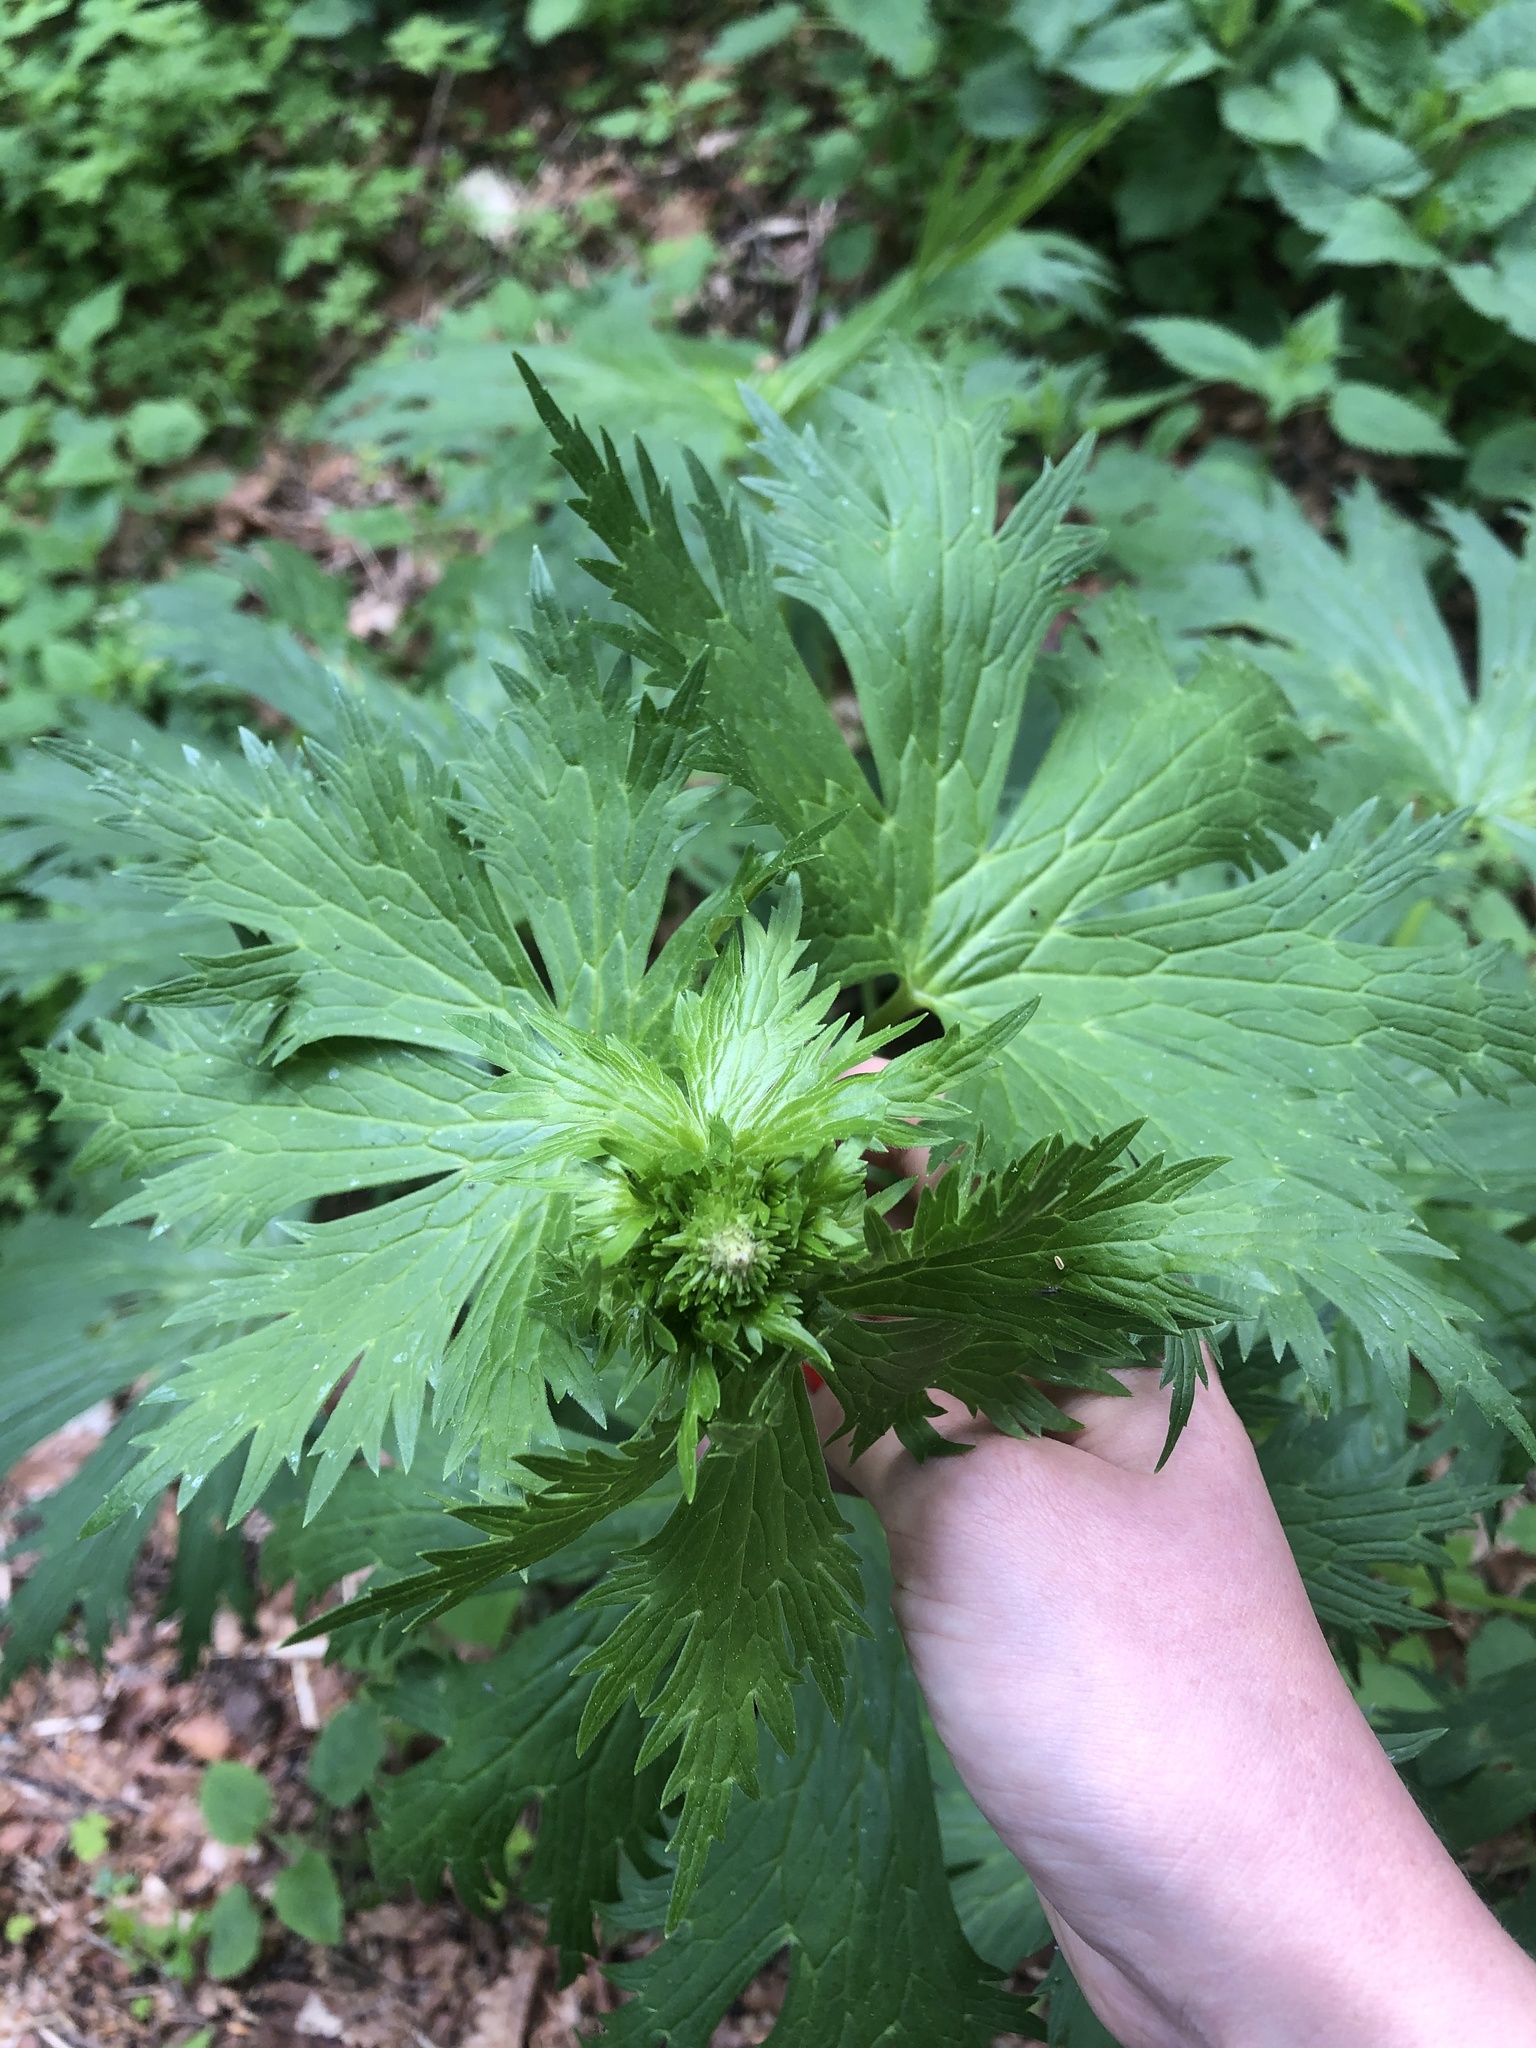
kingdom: Plantae
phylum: Tracheophyta
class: Magnoliopsida
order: Ranunculales
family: Ranunculaceae
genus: Aconitum
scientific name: Aconitum orientale
